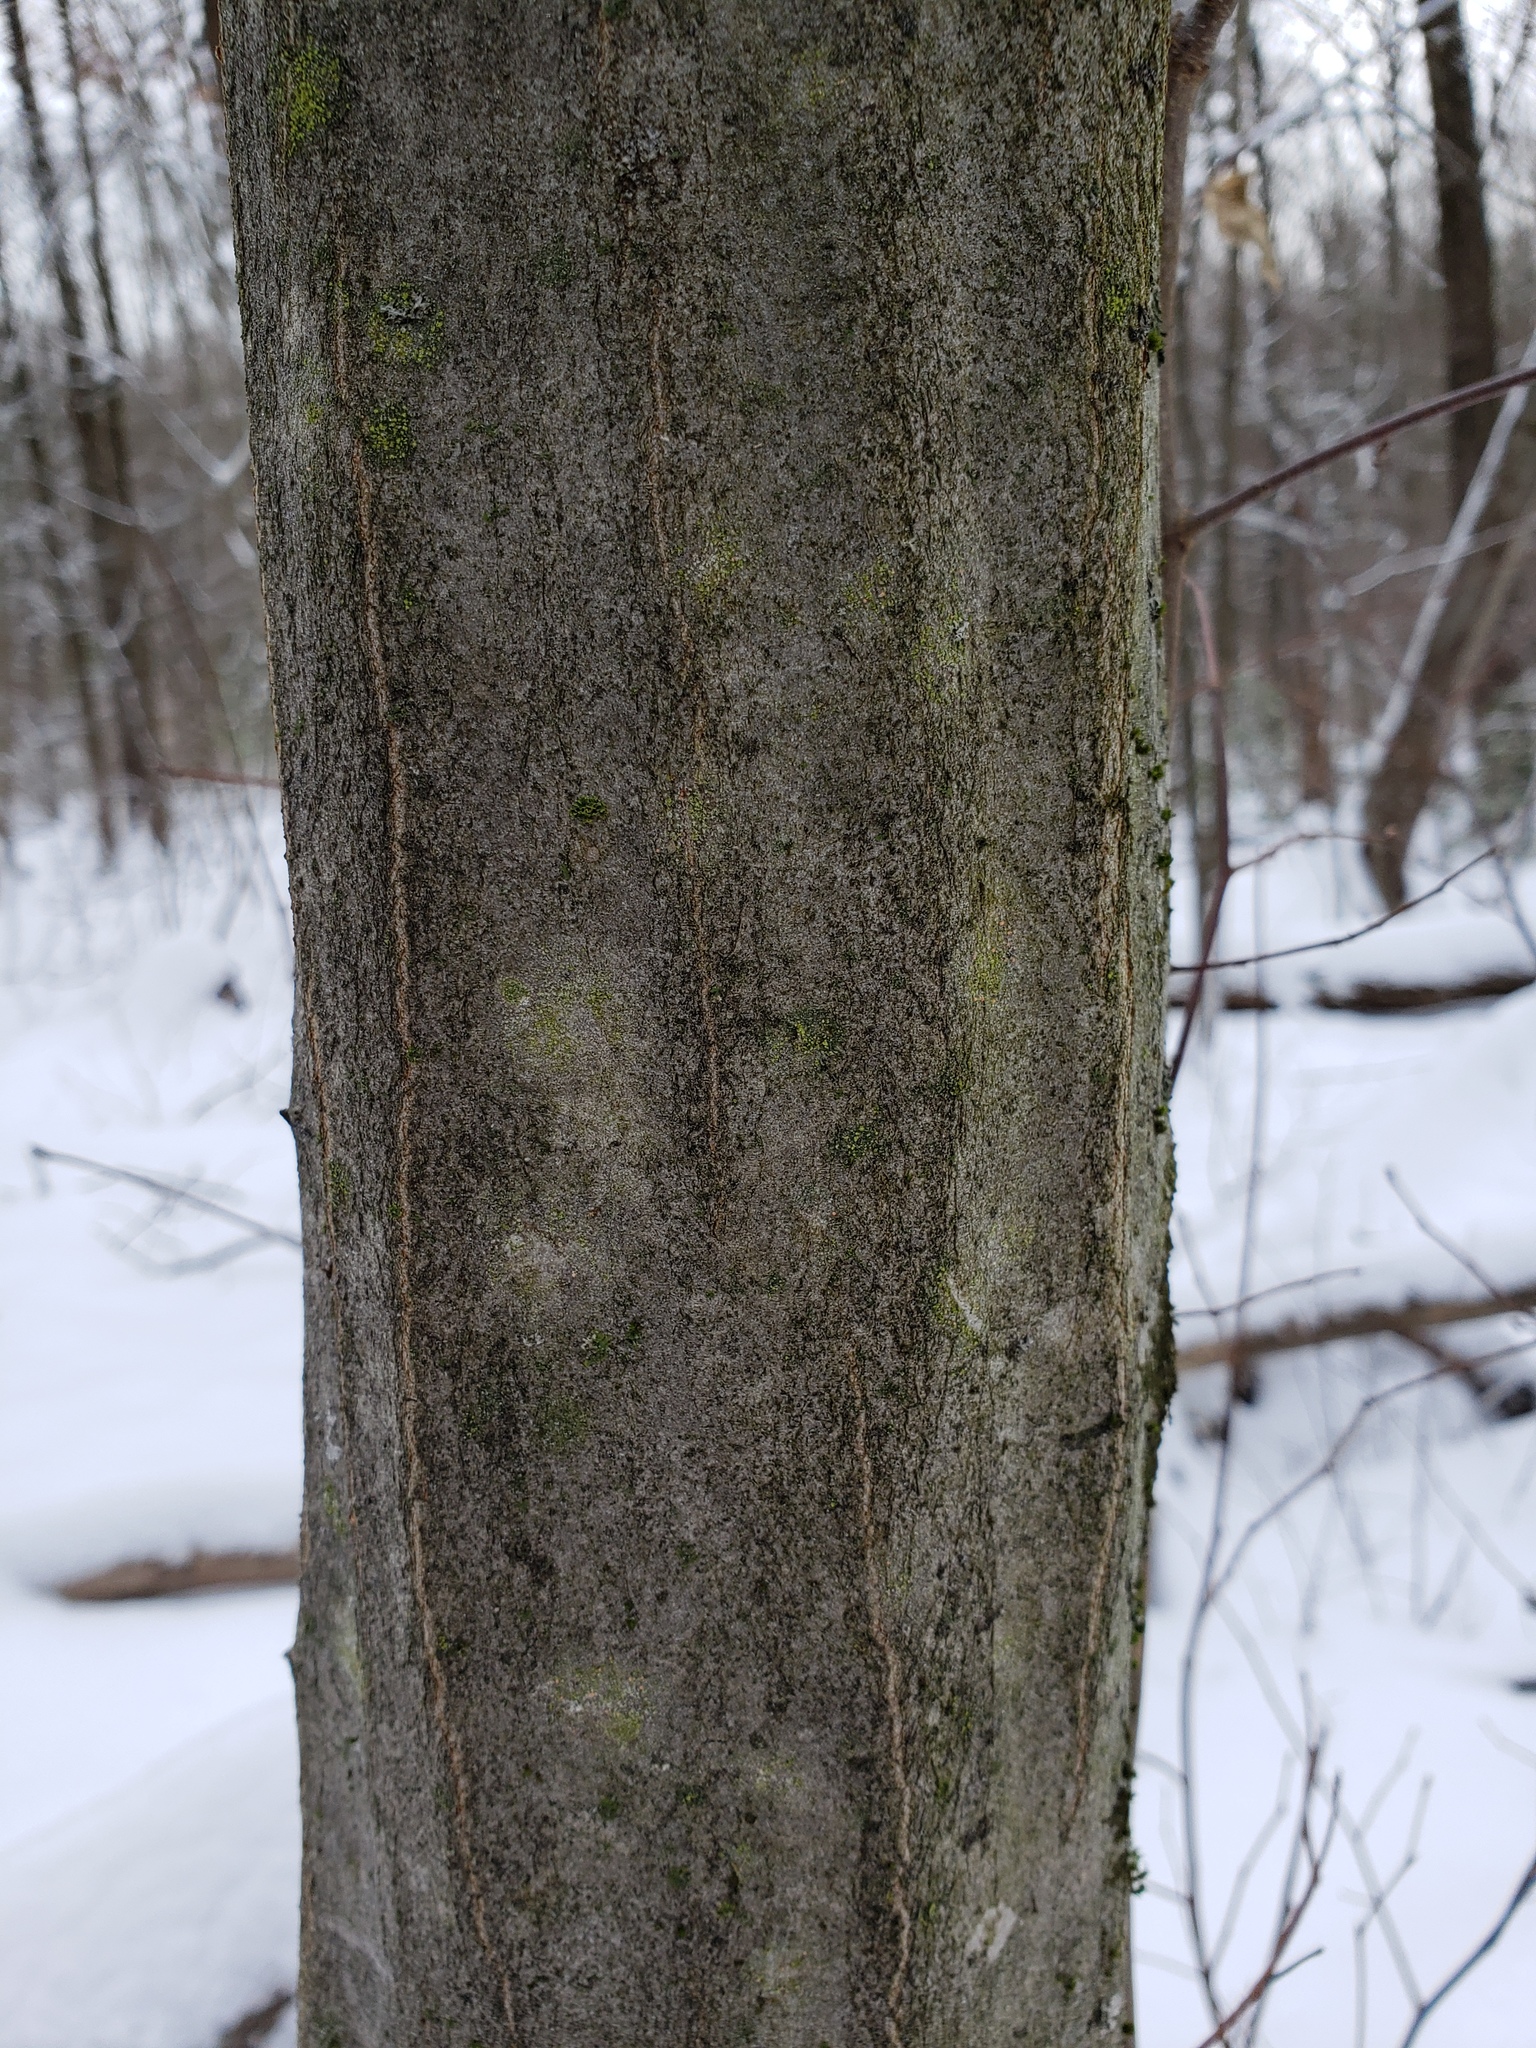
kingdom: Plantae
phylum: Tracheophyta
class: Magnoliopsida
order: Fagales
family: Betulaceae
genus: Carpinus
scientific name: Carpinus caroliniana
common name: American hornbeam
